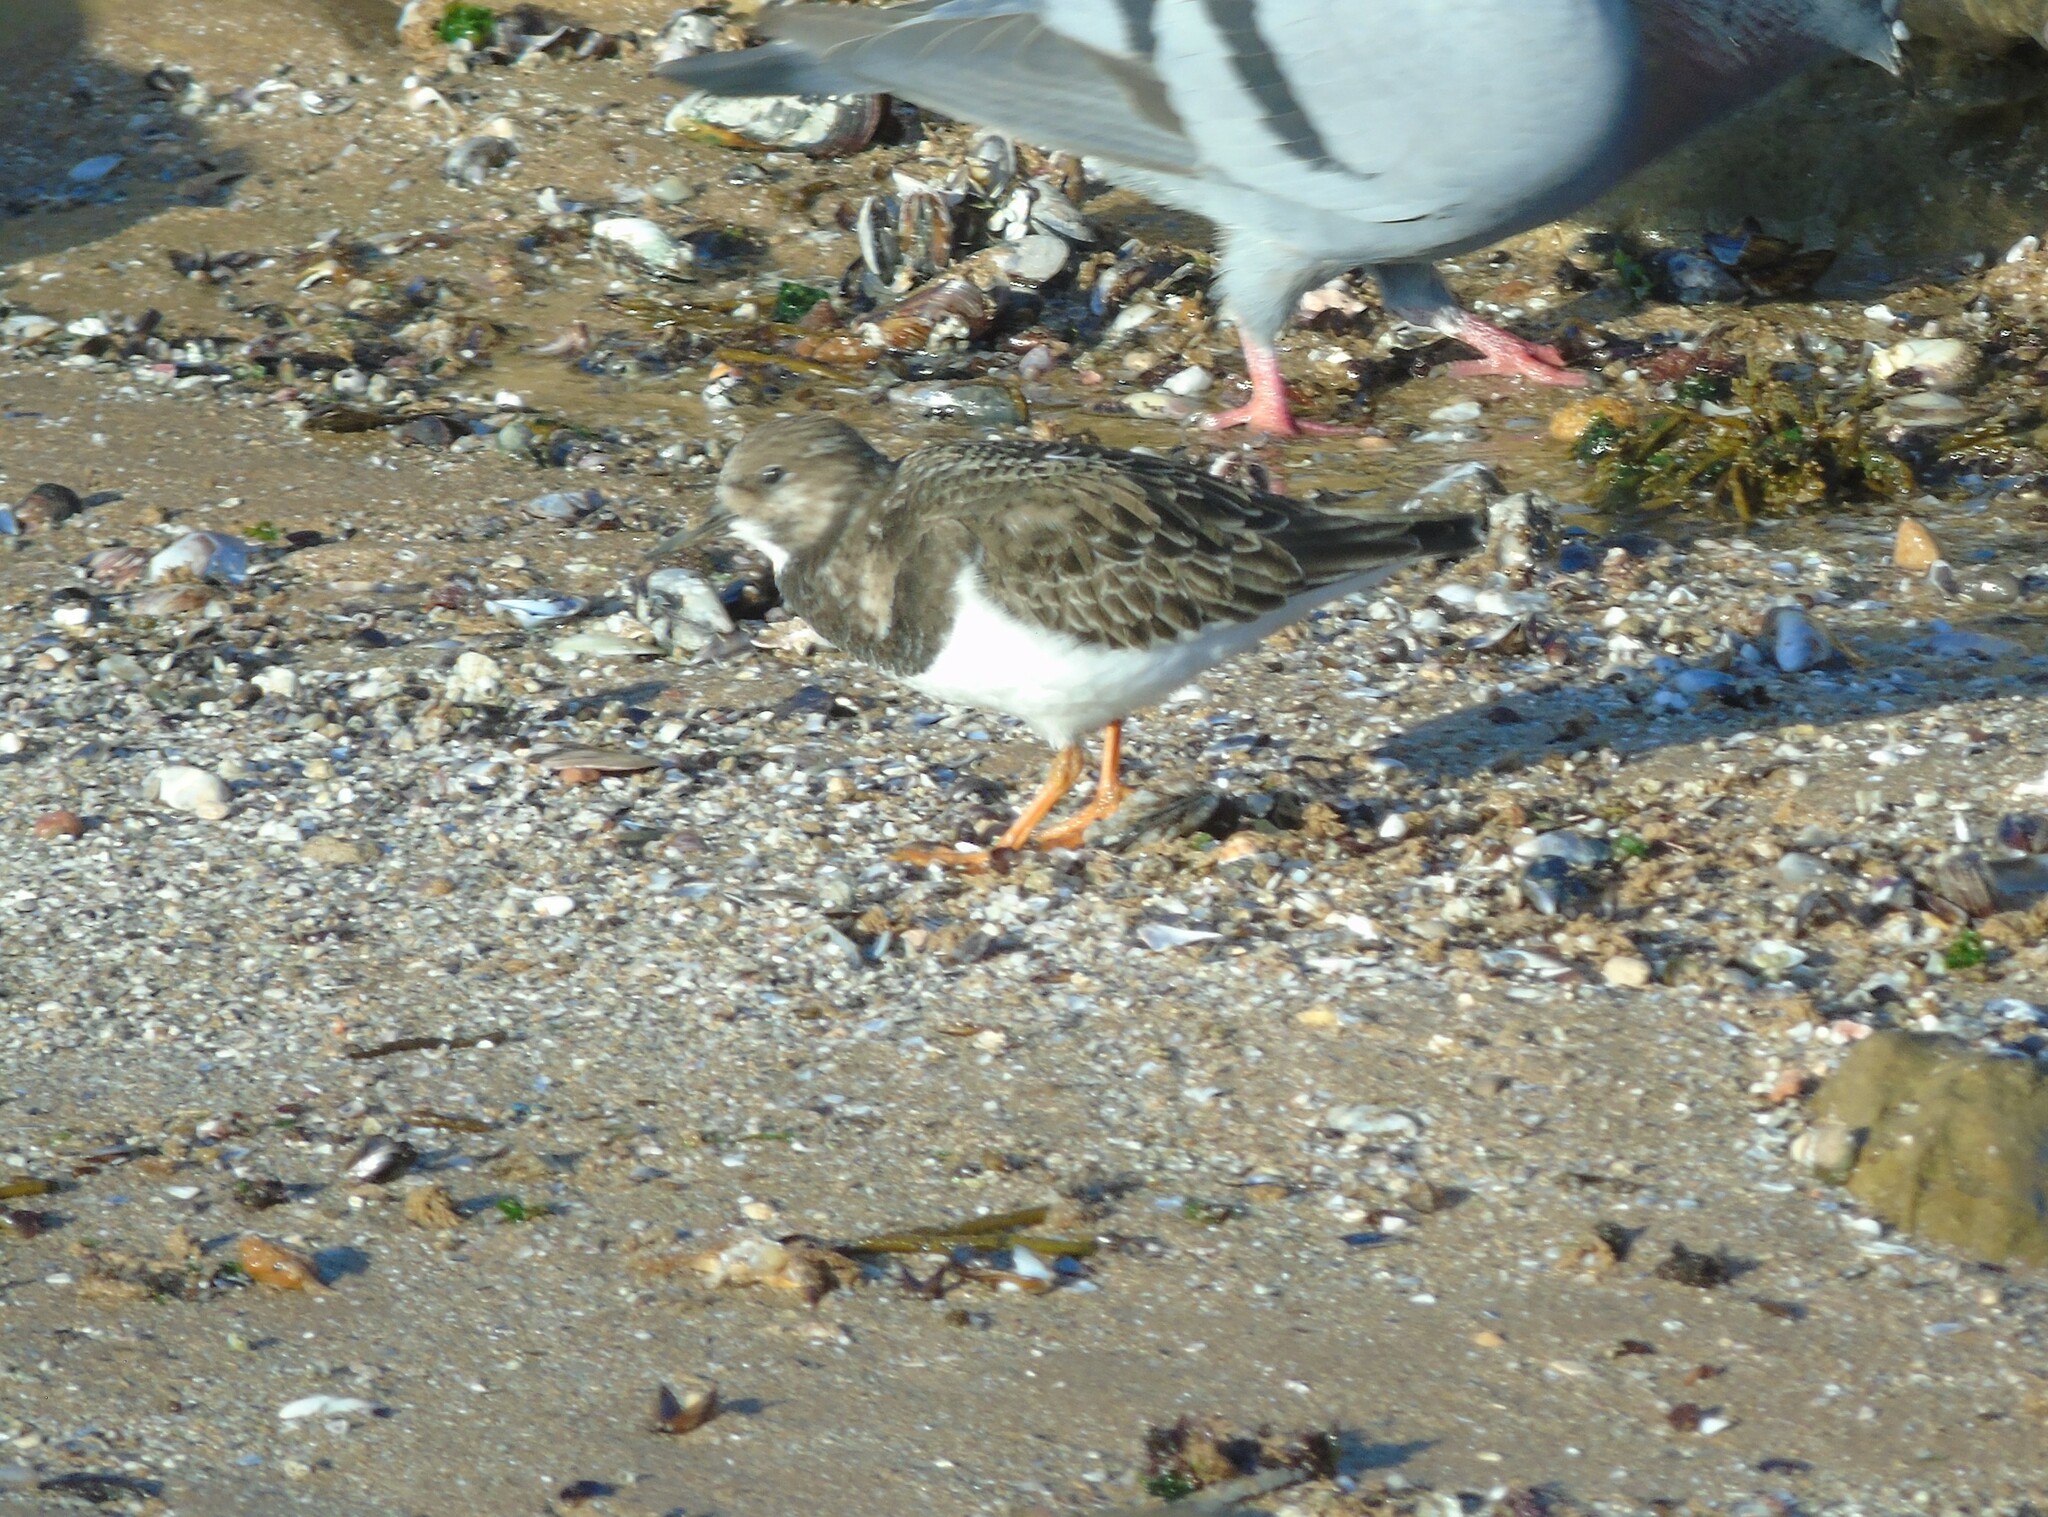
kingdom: Animalia
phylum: Chordata
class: Aves
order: Charadriiformes
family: Scolopacidae
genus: Arenaria
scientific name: Arenaria interpres
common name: Ruddy turnstone
